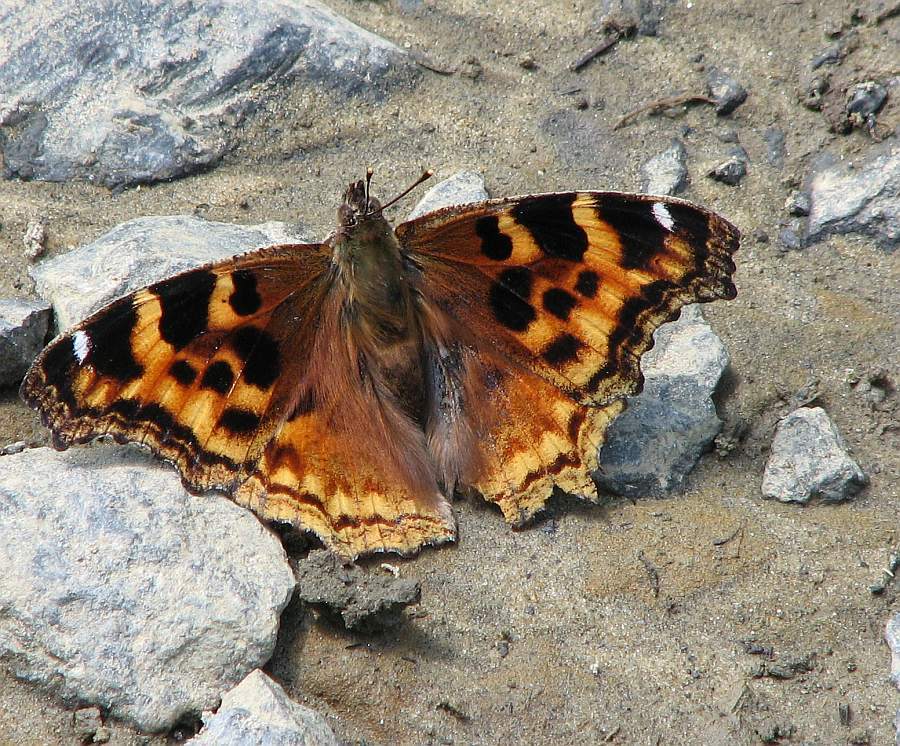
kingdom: Animalia
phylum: Arthropoda
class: Insecta
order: Lepidoptera
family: Nymphalidae
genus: Polygonia
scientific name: Polygonia vaualbum
